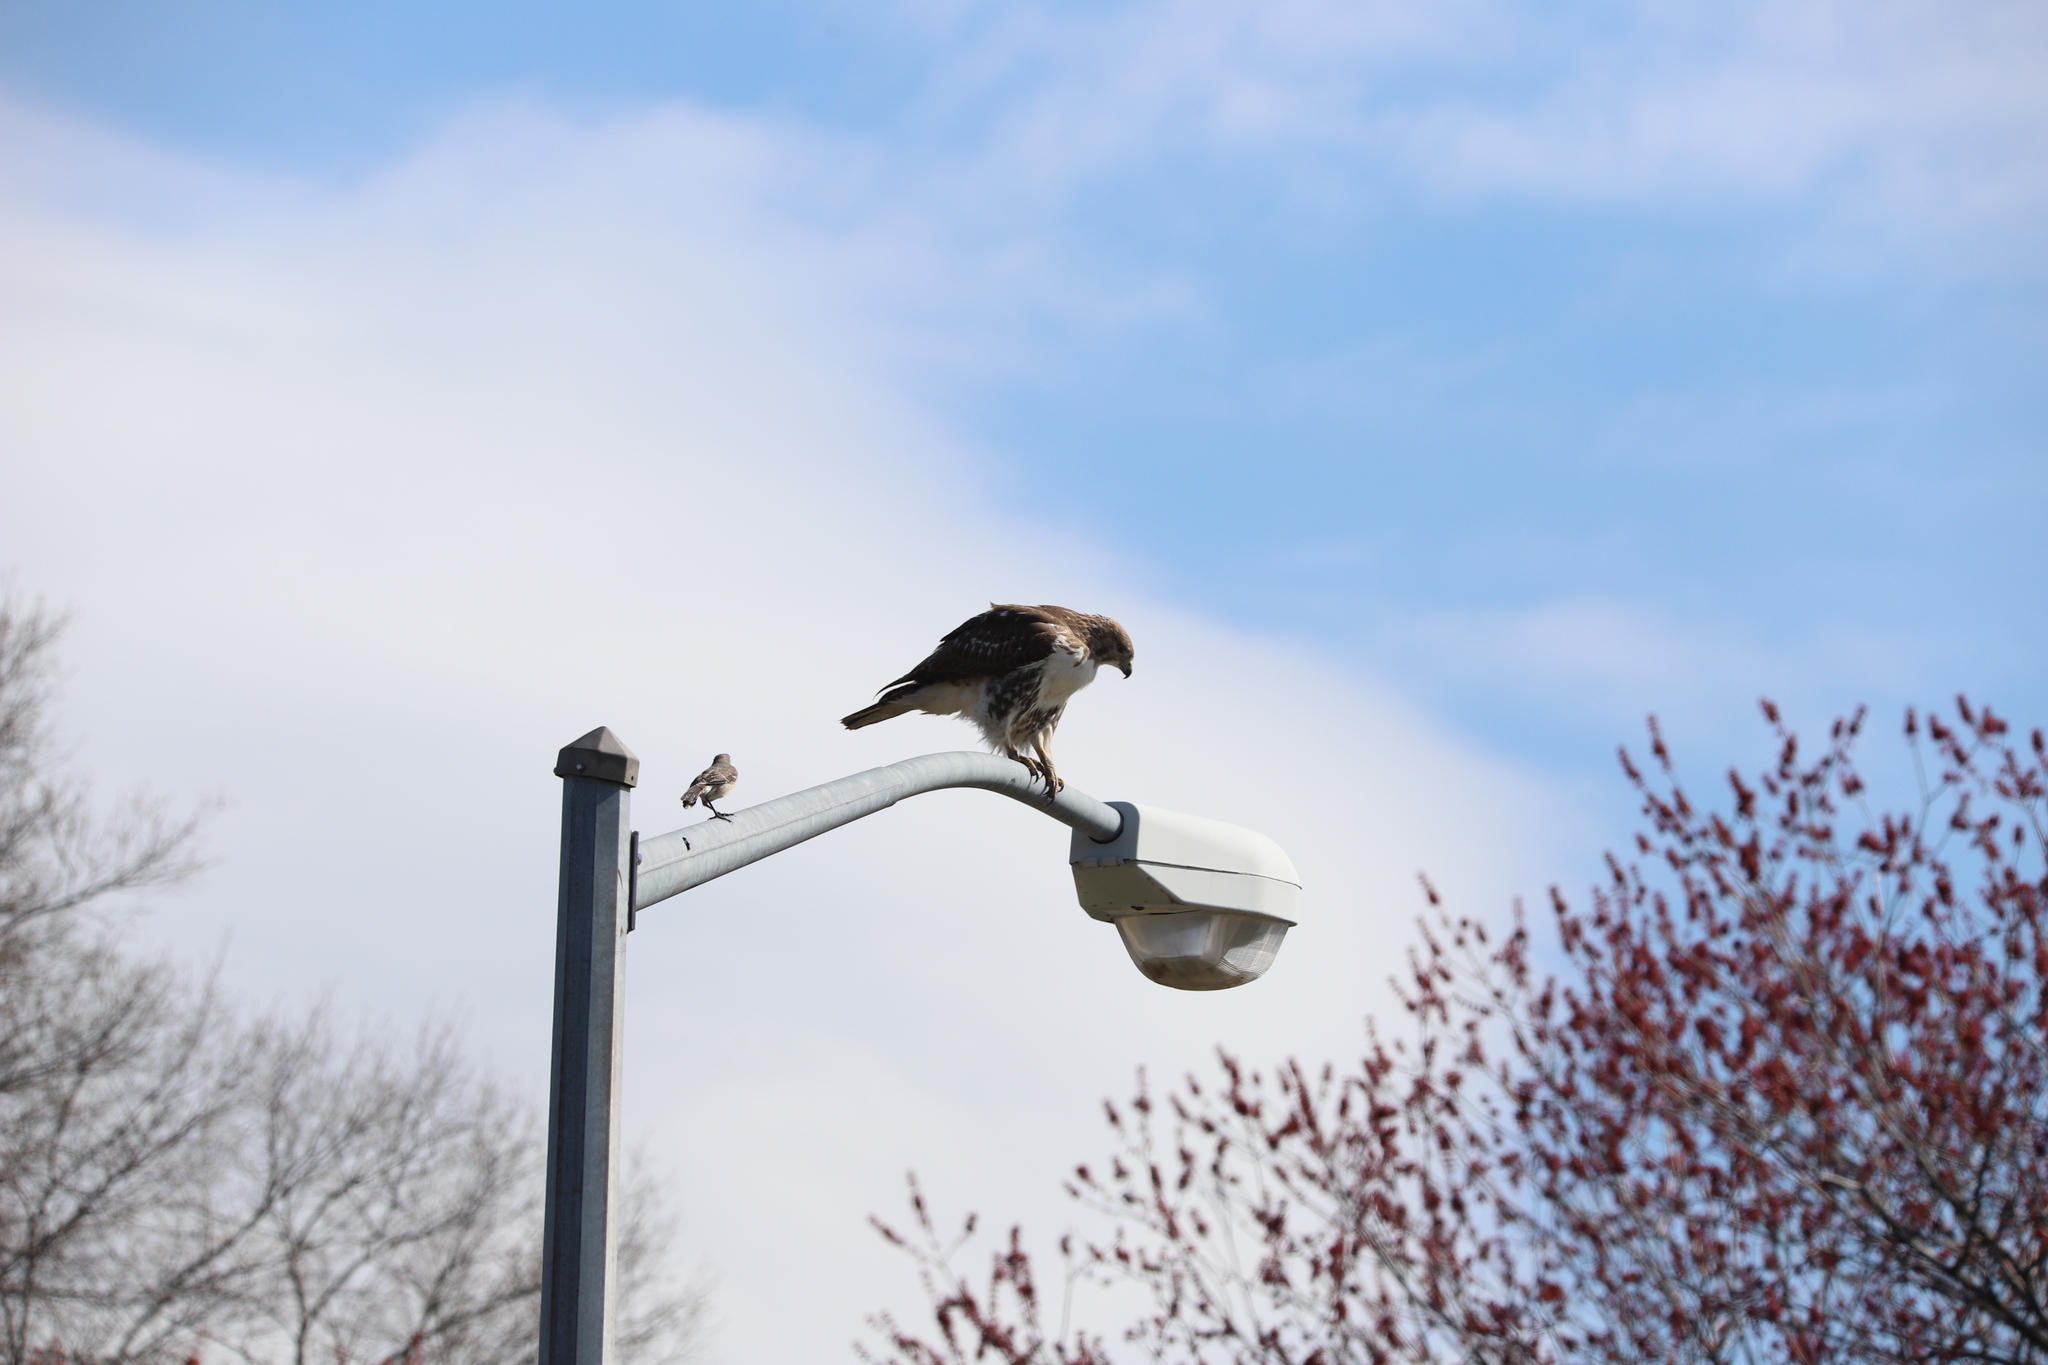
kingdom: Animalia
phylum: Chordata
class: Aves
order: Accipitriformes
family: Accipitridae
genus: Buteo
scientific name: Buteo jamaicensis
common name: Red-tailed hawk
